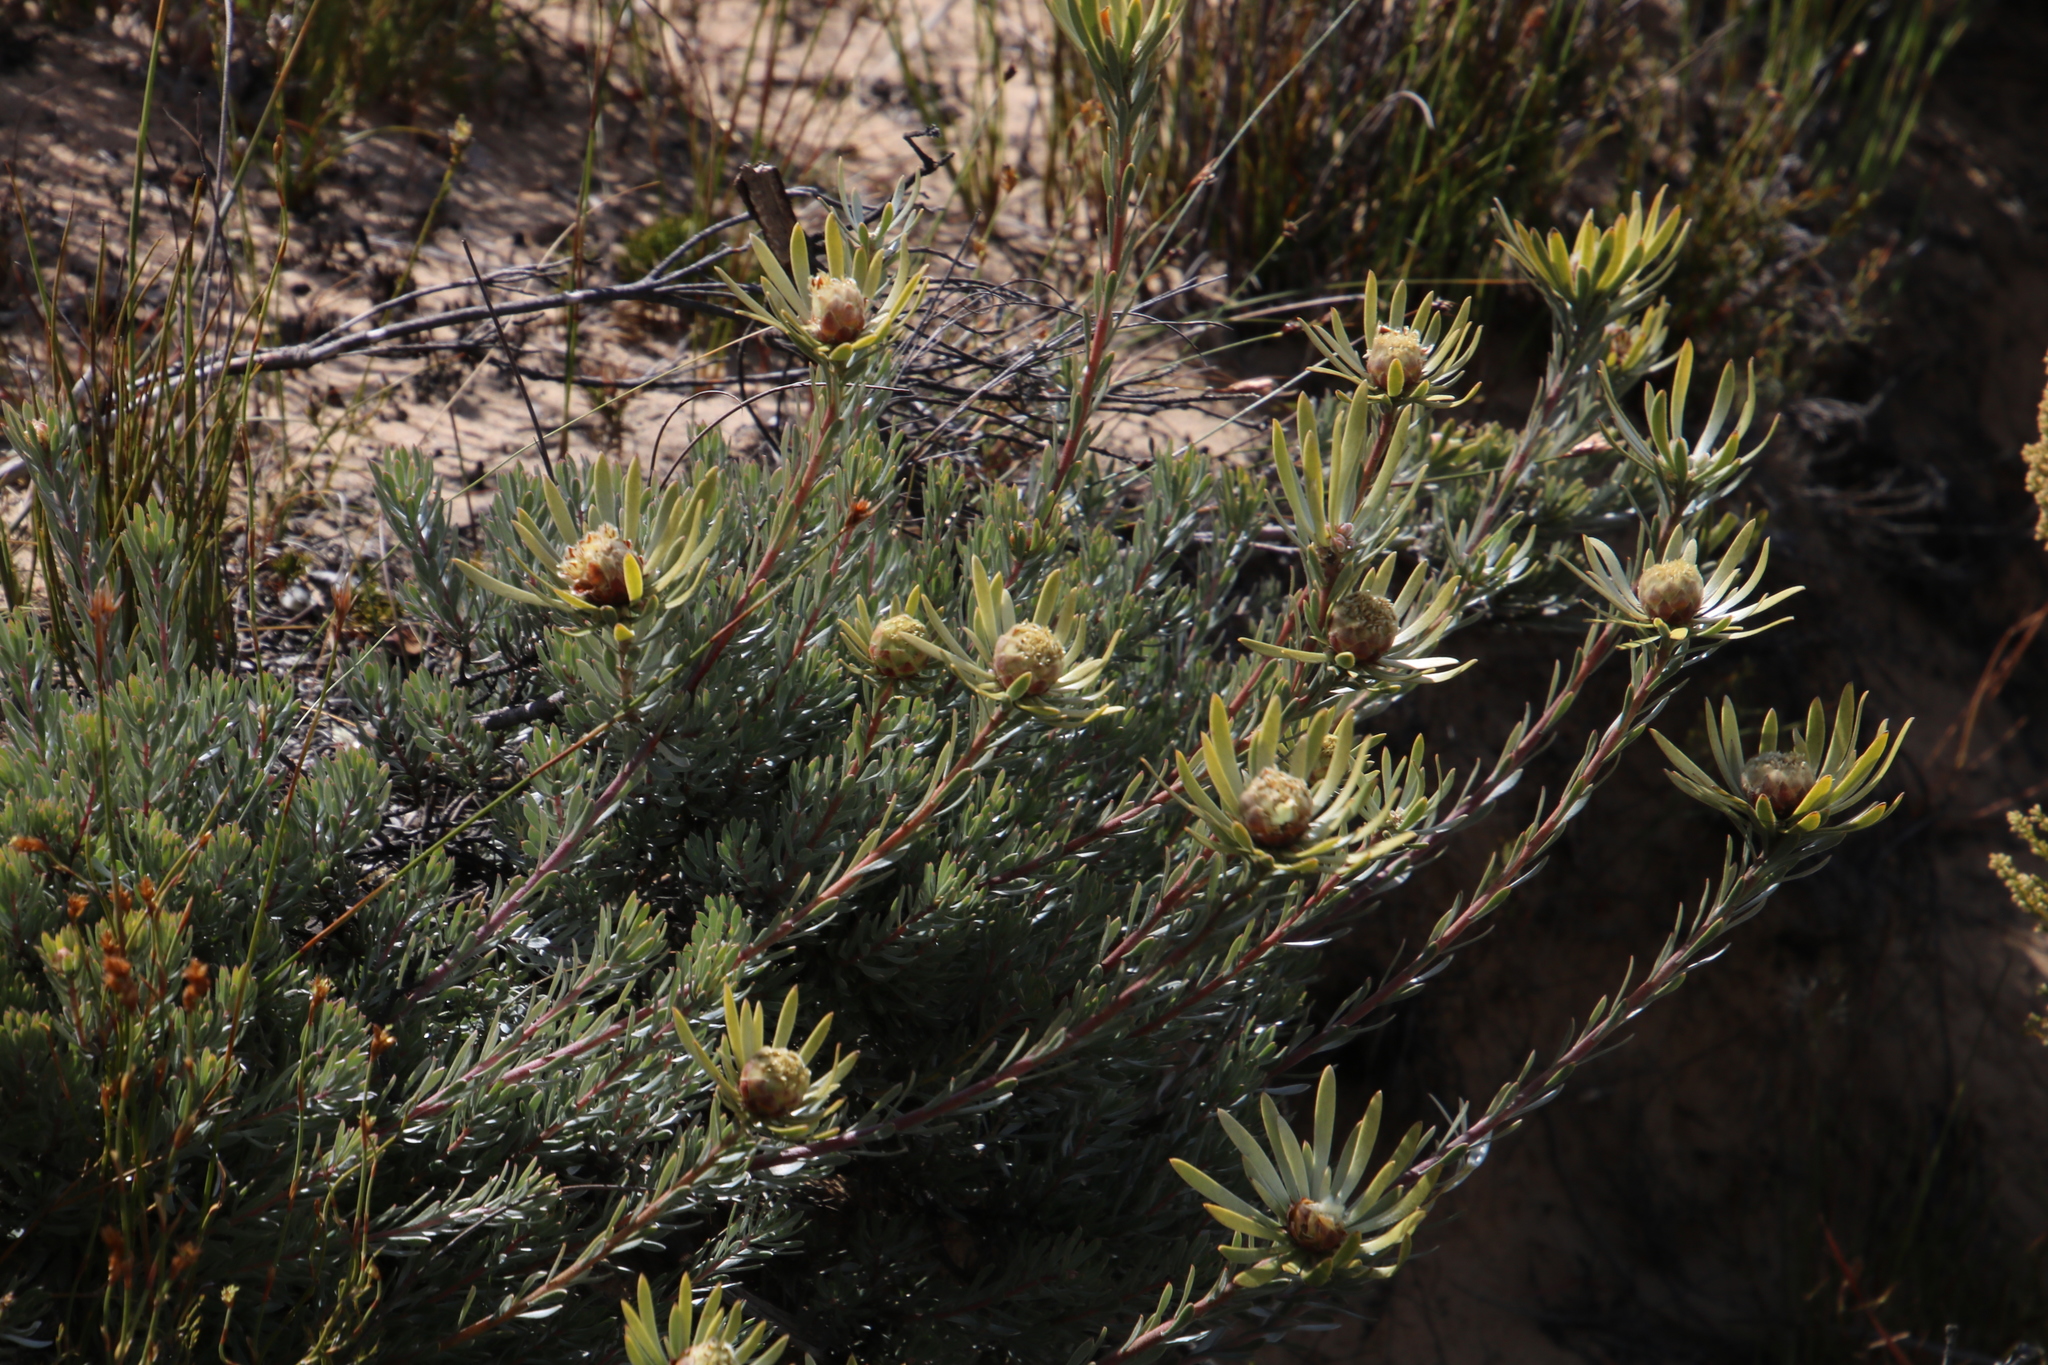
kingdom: Plantae
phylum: Tracheophyta
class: Magnoliopsida
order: Proteales
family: Proteaceae
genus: Leucadendron
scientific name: Leucadendron nitidum
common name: Bokkeveld conebush
